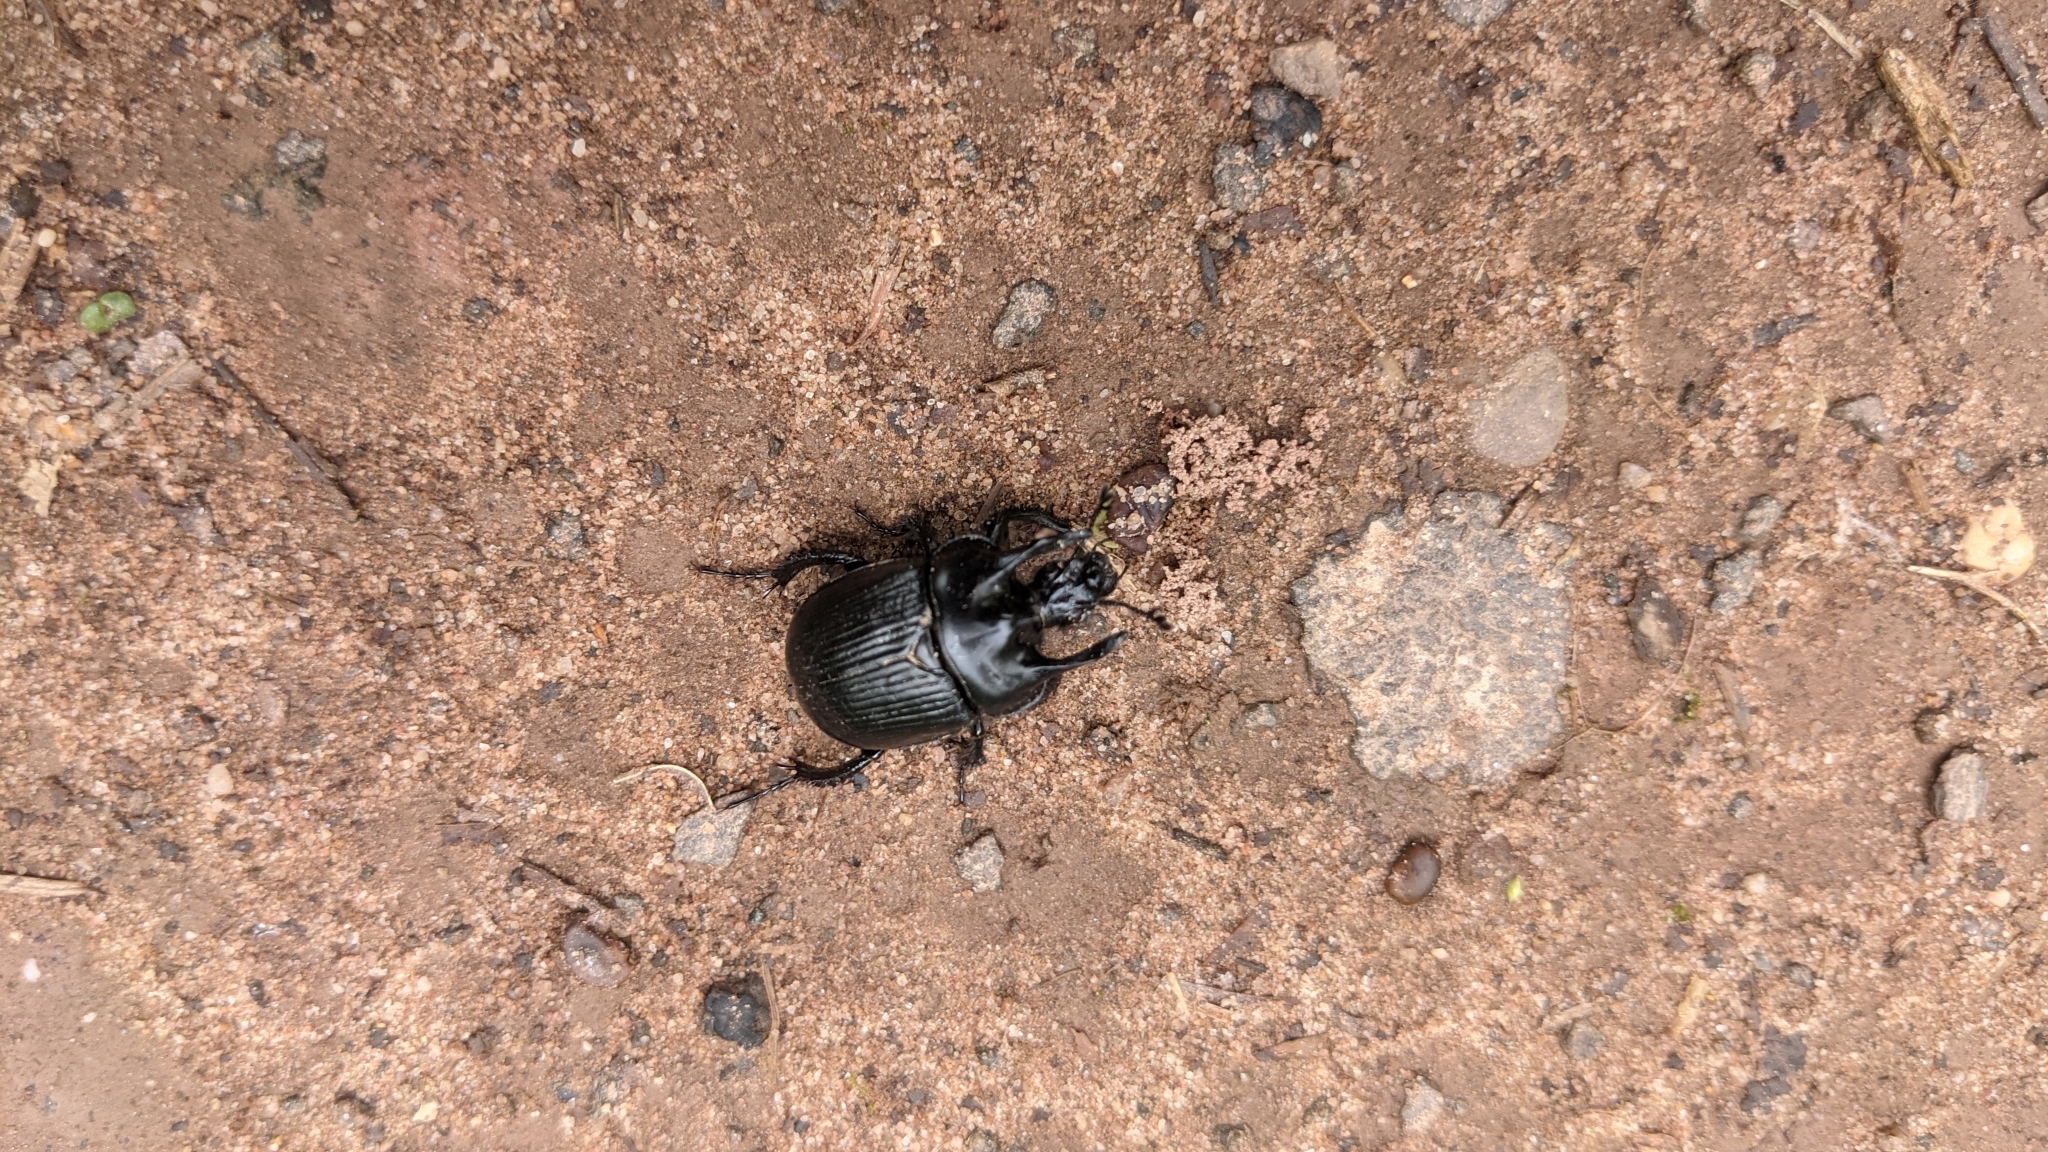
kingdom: Animalia
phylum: Arthropoda
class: Insecta
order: Coleoptera
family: Geotrupidae
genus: Typhaeus
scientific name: Typhaeus typhoeus
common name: Minotaur beetle
